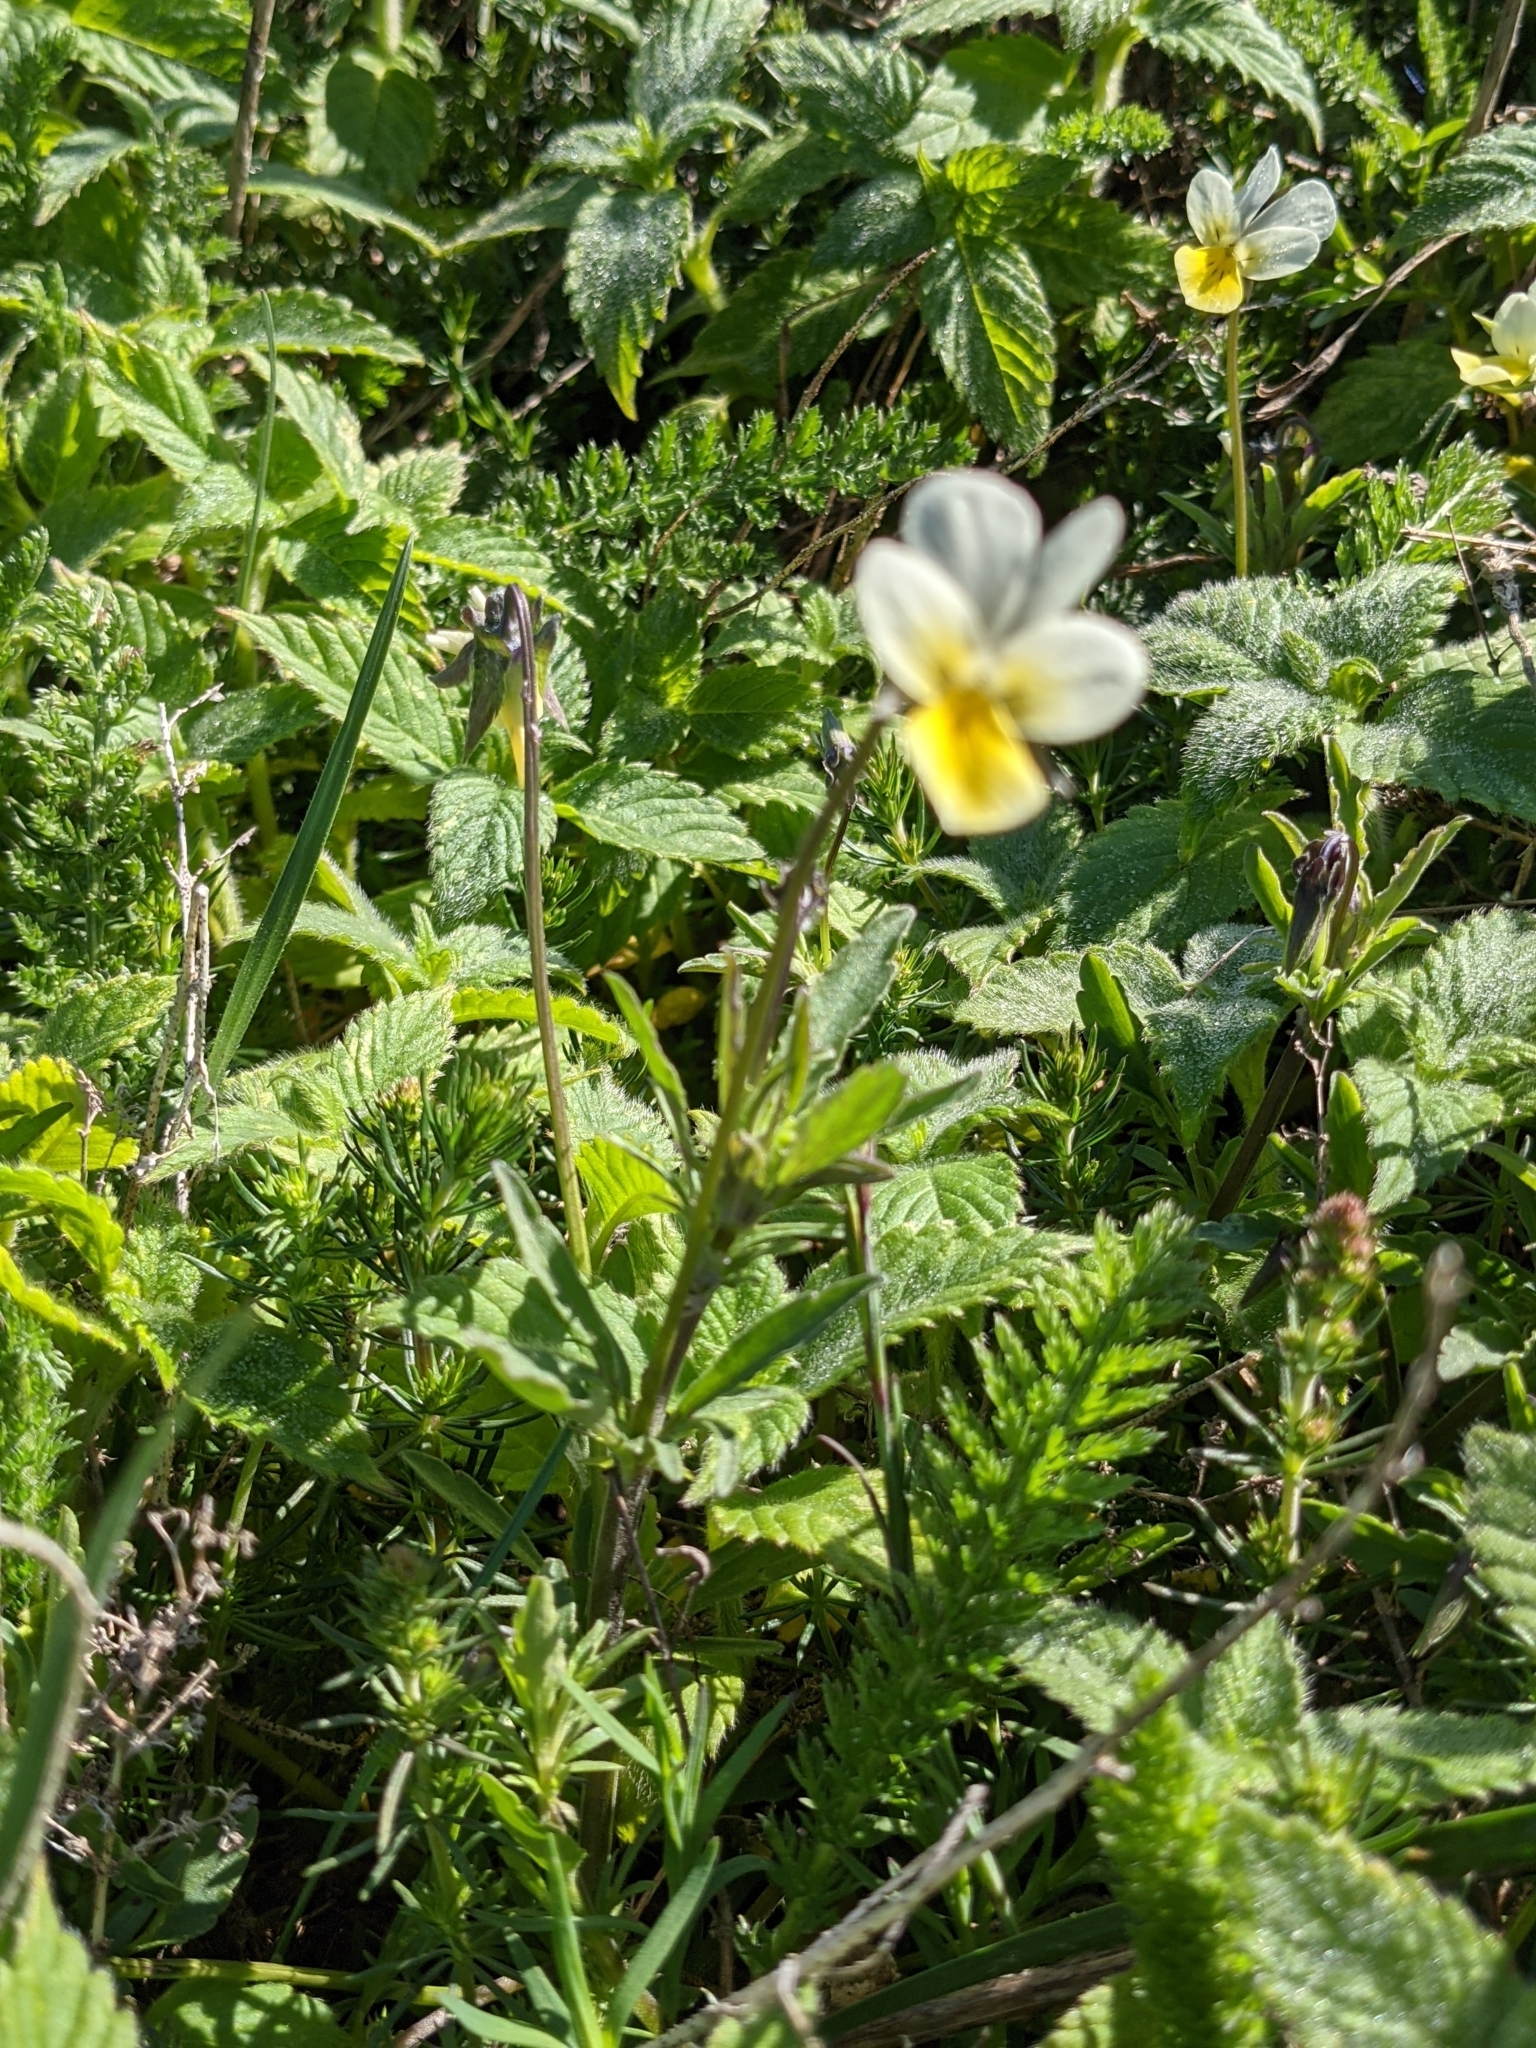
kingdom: Plantae
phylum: Tracheophyta
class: Magnoliopsida
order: Malpighiales
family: Violaceae
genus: Viola
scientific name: Viola tricolor
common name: Pansy
